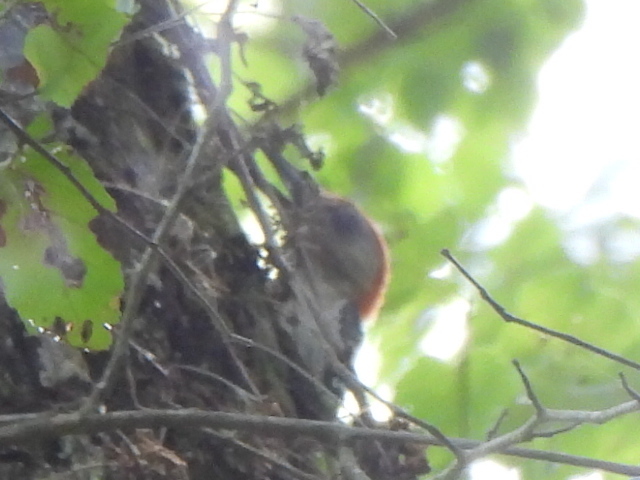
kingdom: Animalia
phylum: Chordata
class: Aves
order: Piciformes
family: Picidae
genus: Melanerpes
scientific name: Melanerpes carolinus
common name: Red-bellied woodpecker
